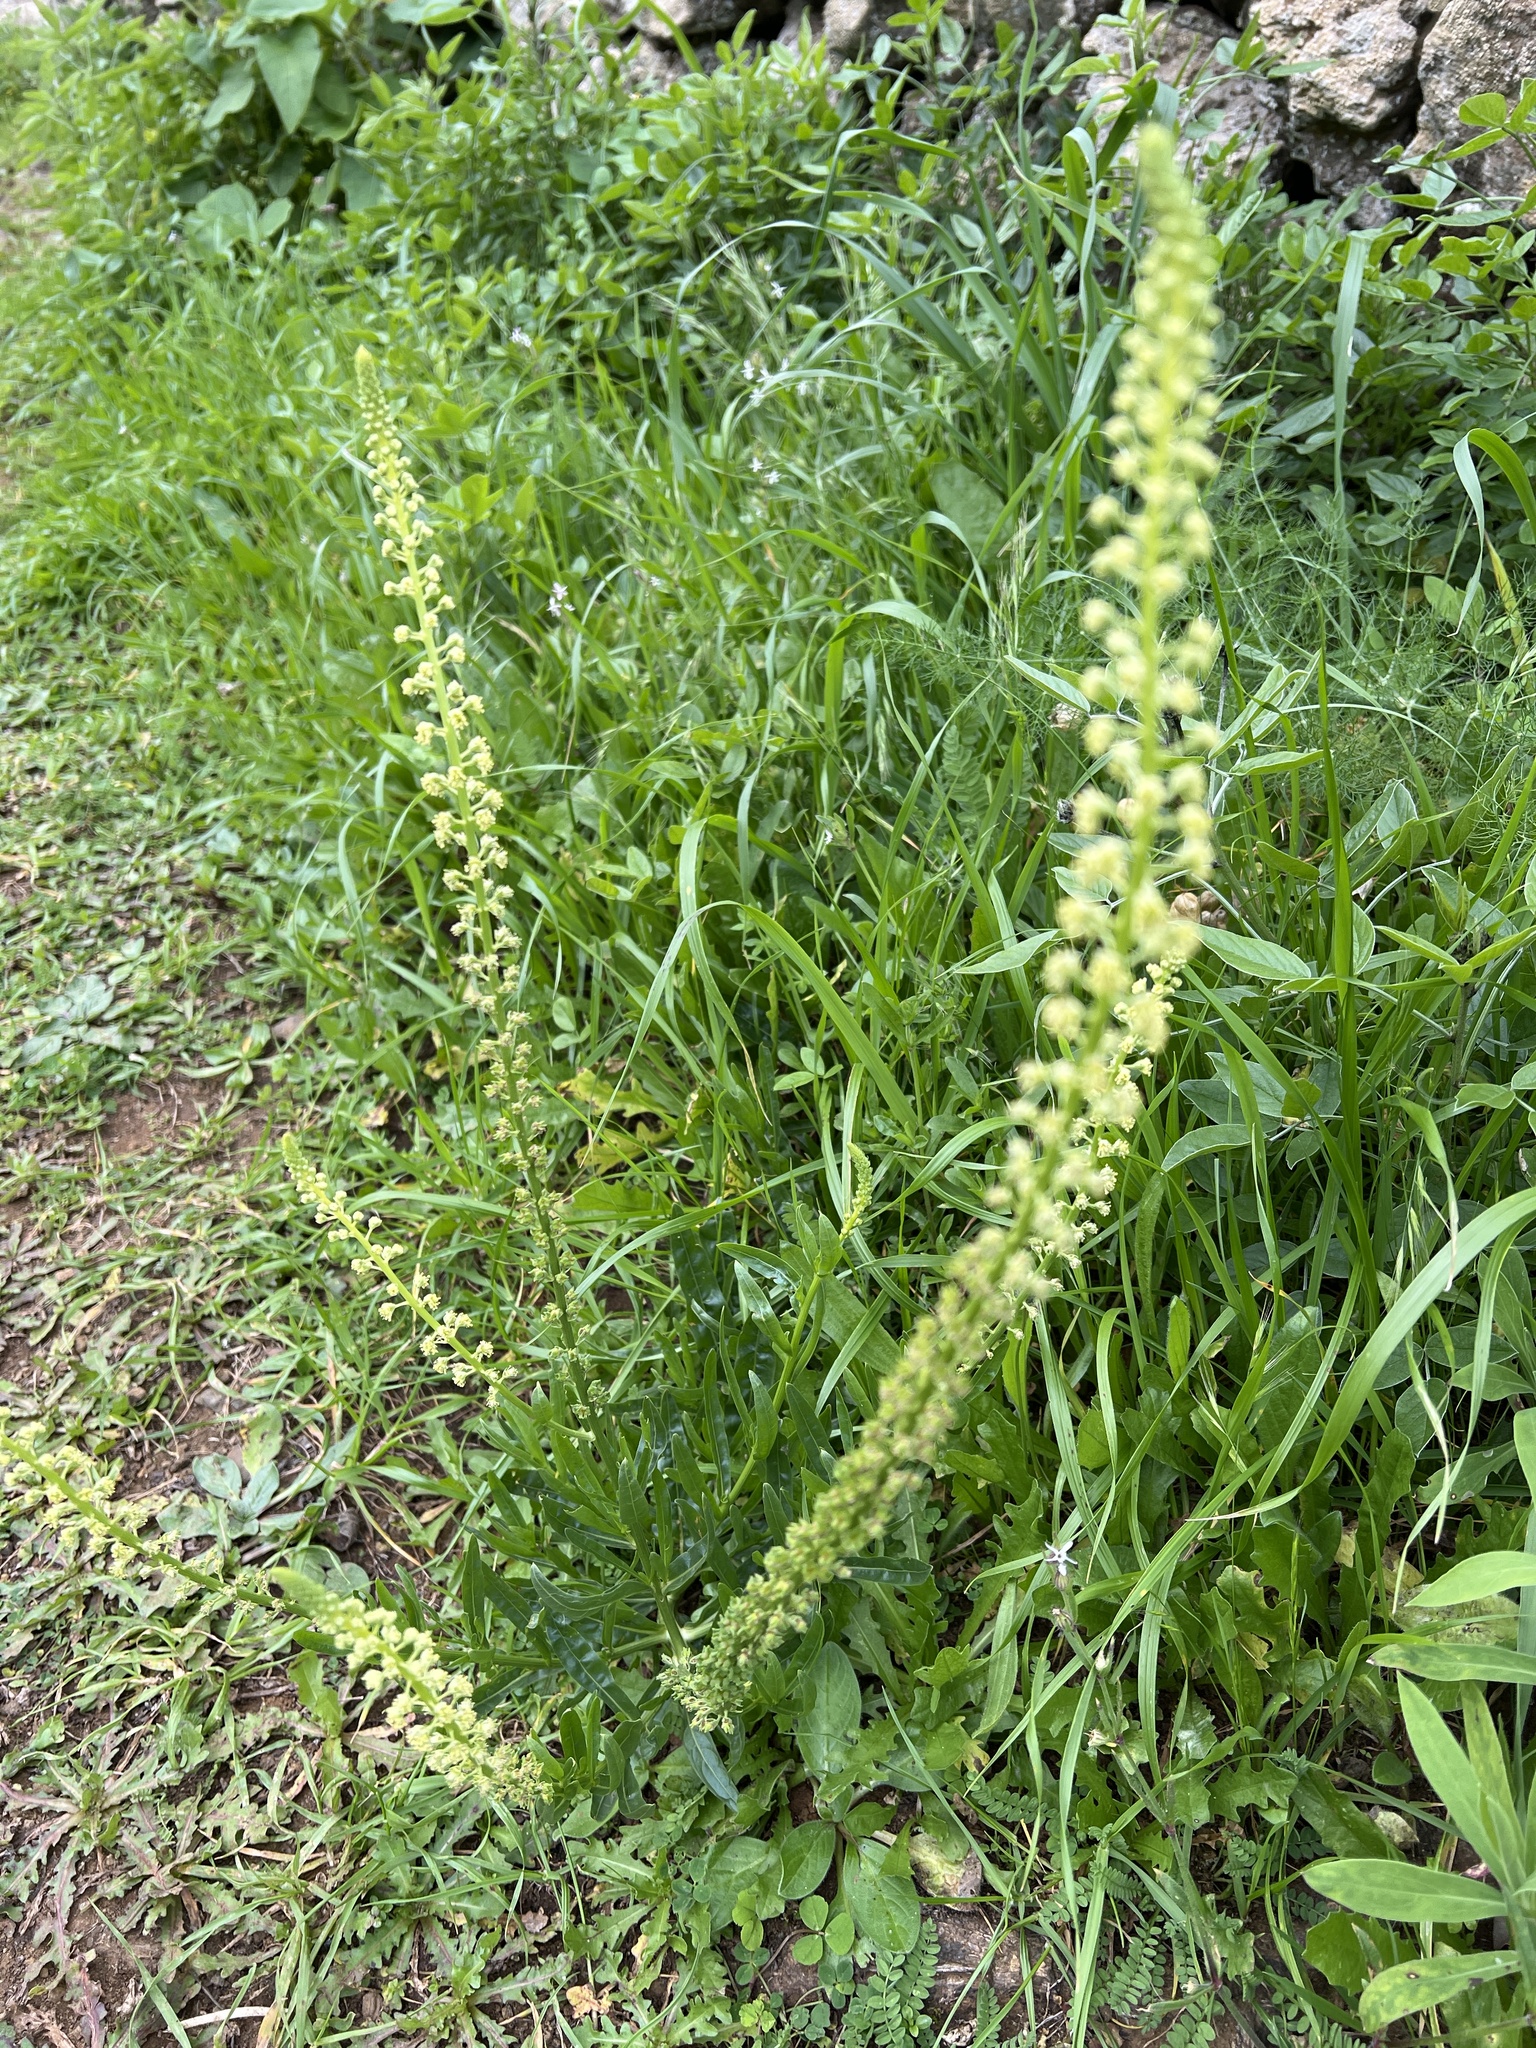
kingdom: Plantae
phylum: Tracheophyta
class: Magnoliopsida
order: Brassicales
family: Resedaceae
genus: Reseda
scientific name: Reseda luteola
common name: Weld
